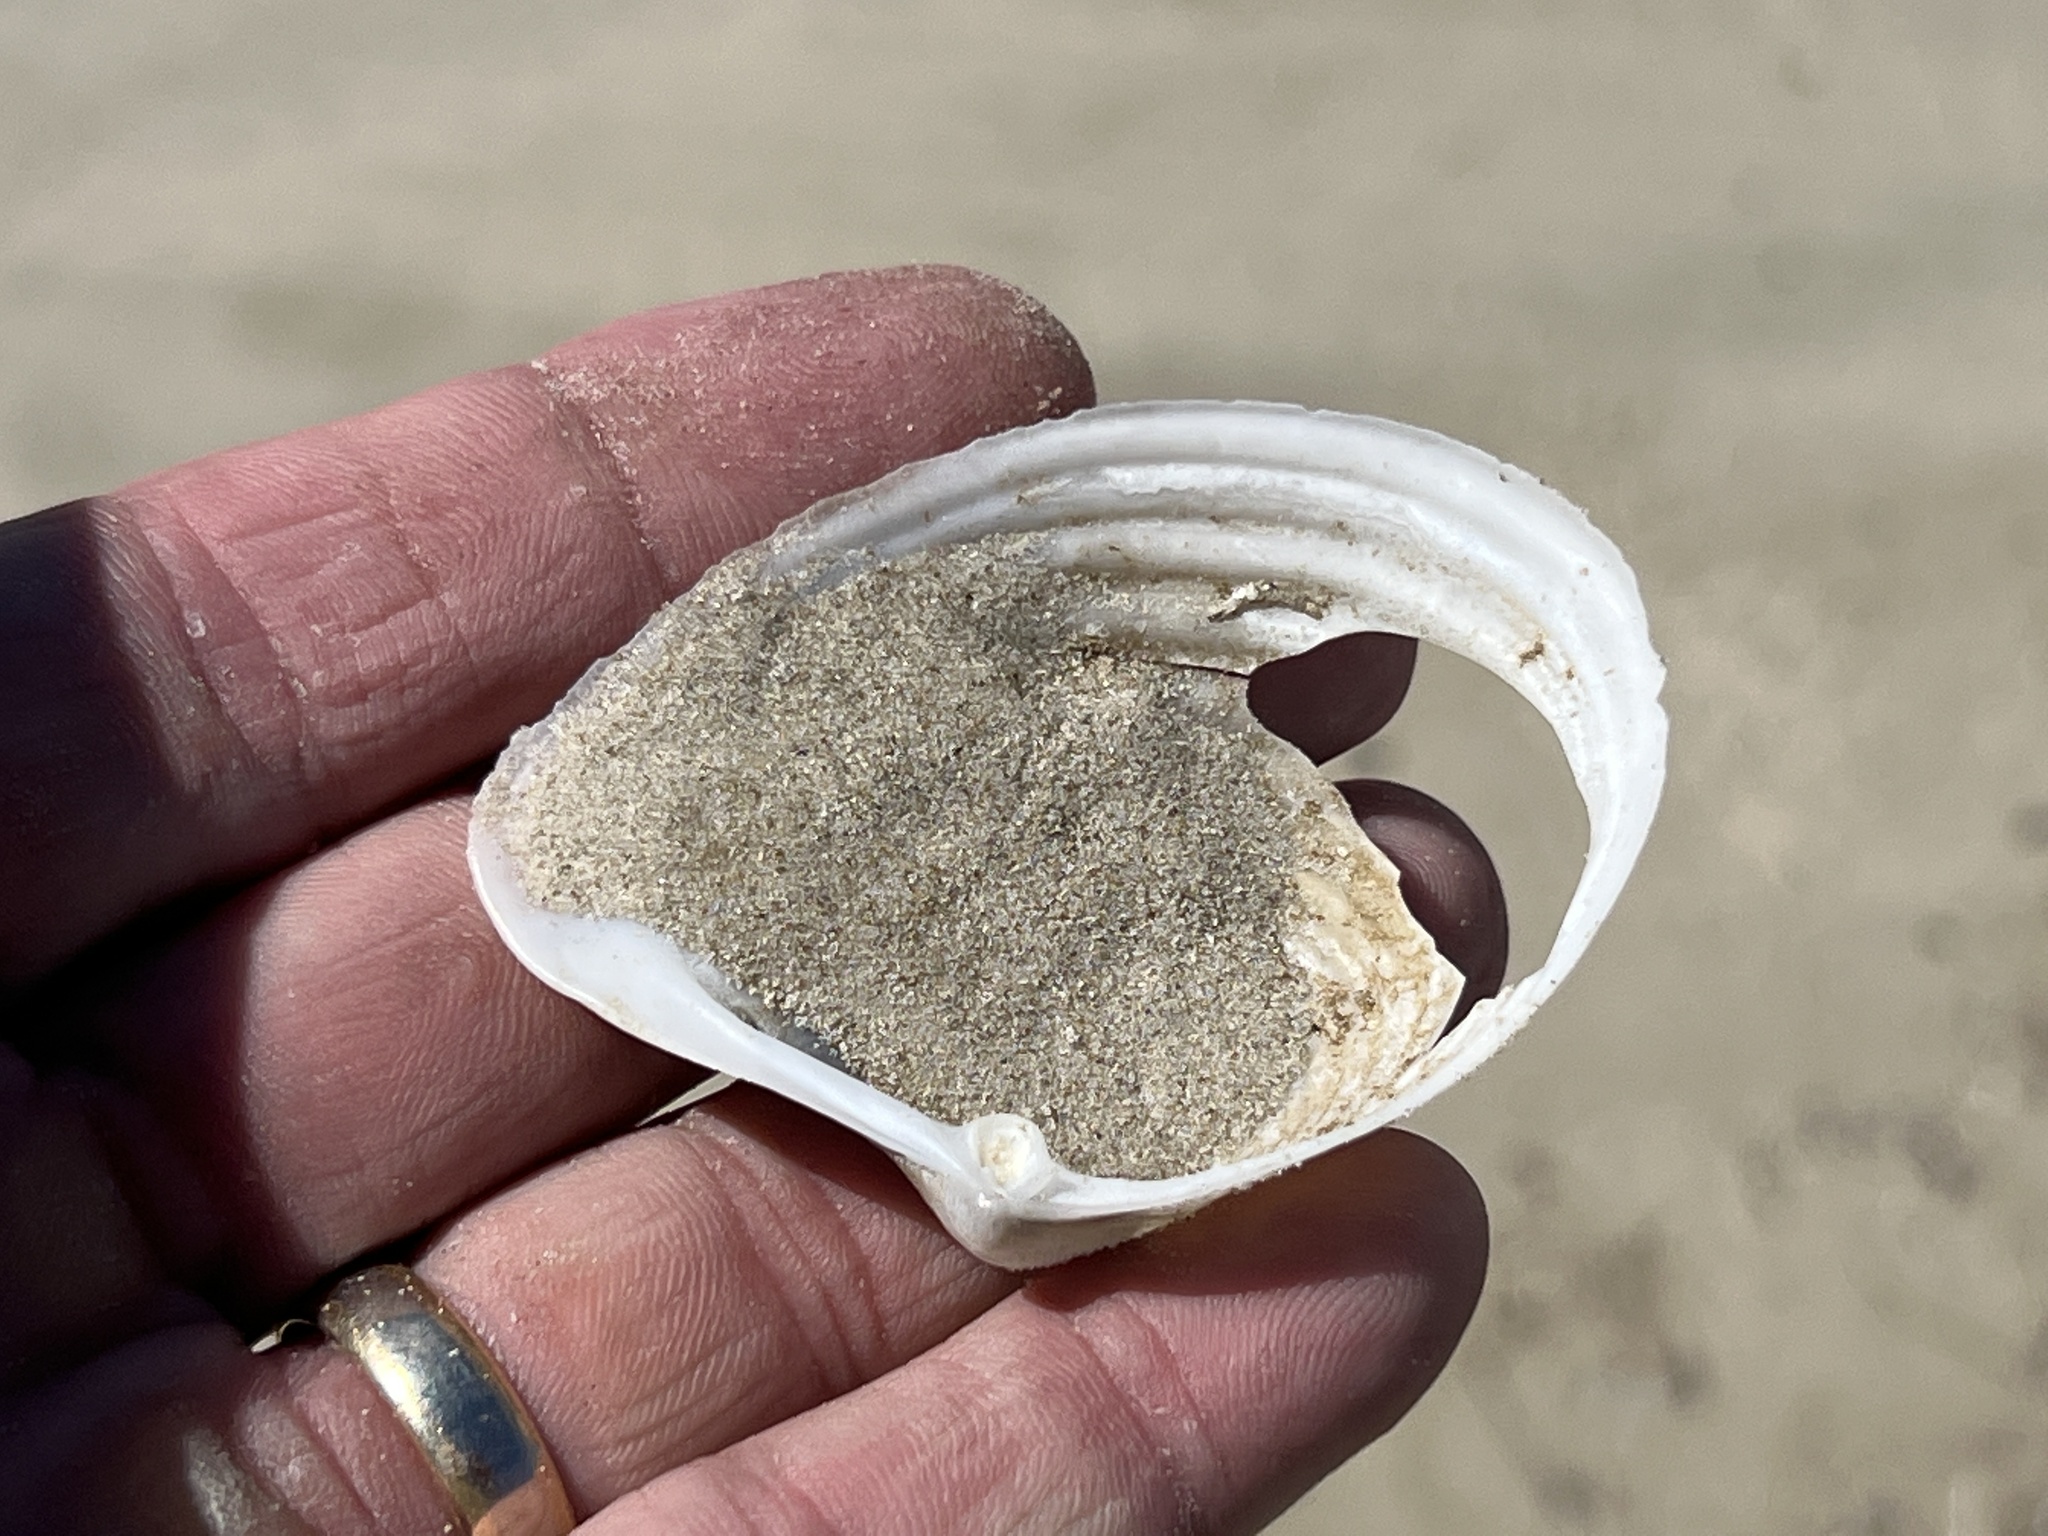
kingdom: Animalia
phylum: Mollusca
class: Bivalvia
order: Venerida
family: Anatinellidae
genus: Raeta
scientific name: Raeta plicatella
